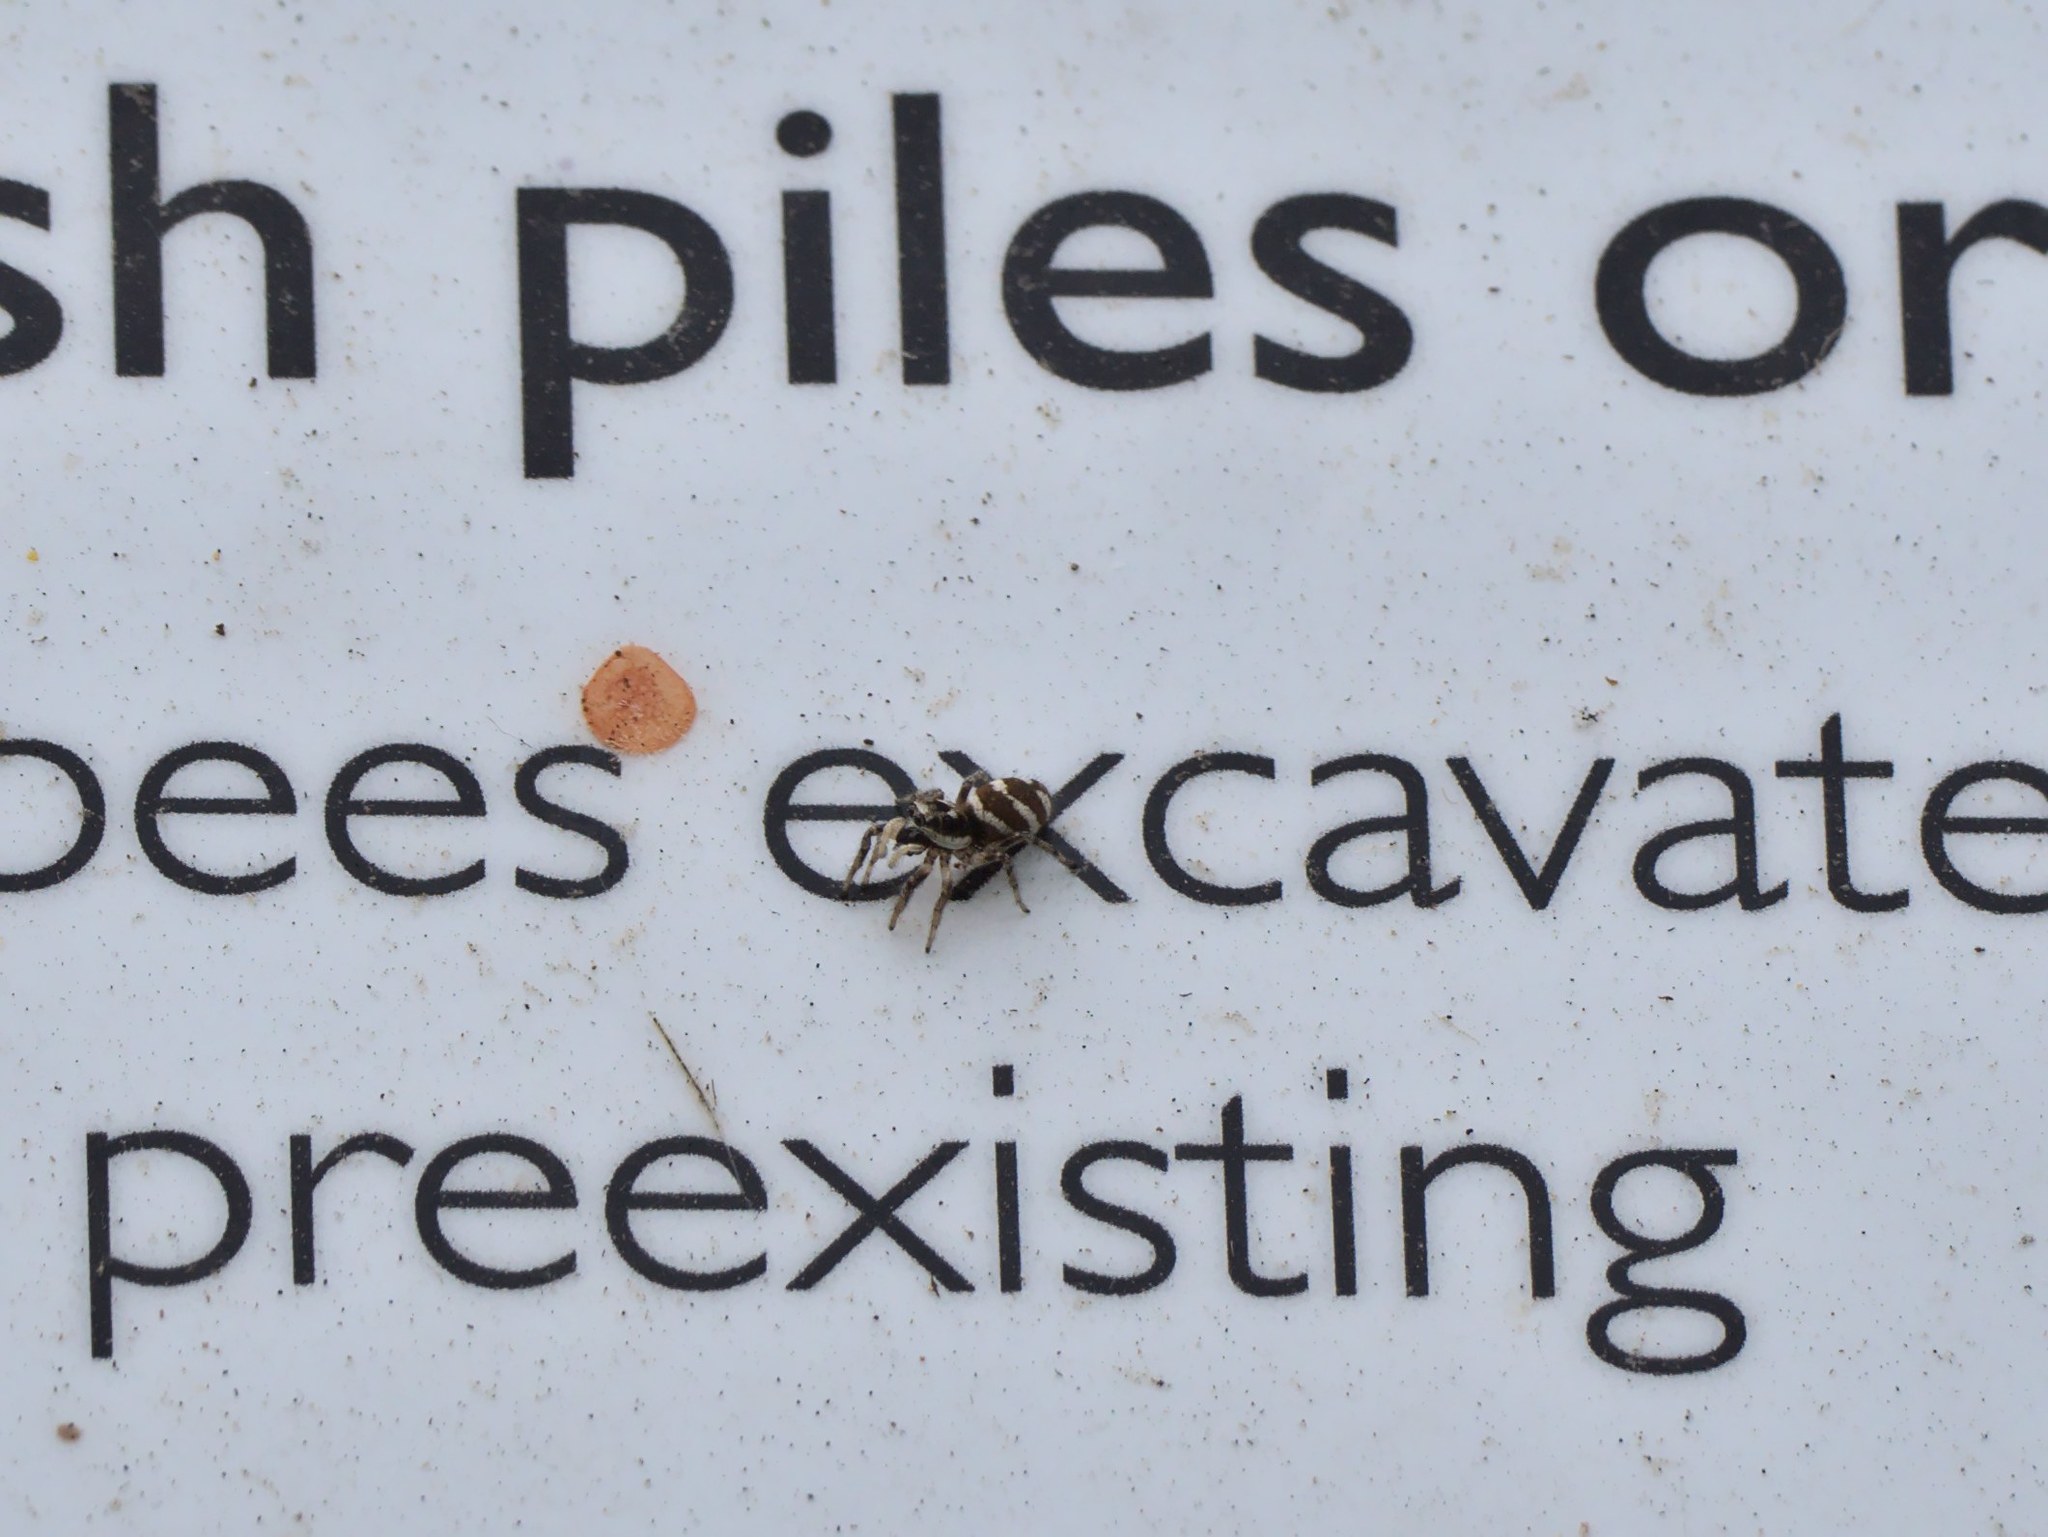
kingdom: Animalia
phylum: Arthropoda
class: Arachnida
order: Araneae
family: Salticidae
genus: Salticus
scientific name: Salticus scenicus
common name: Zebra jumper
